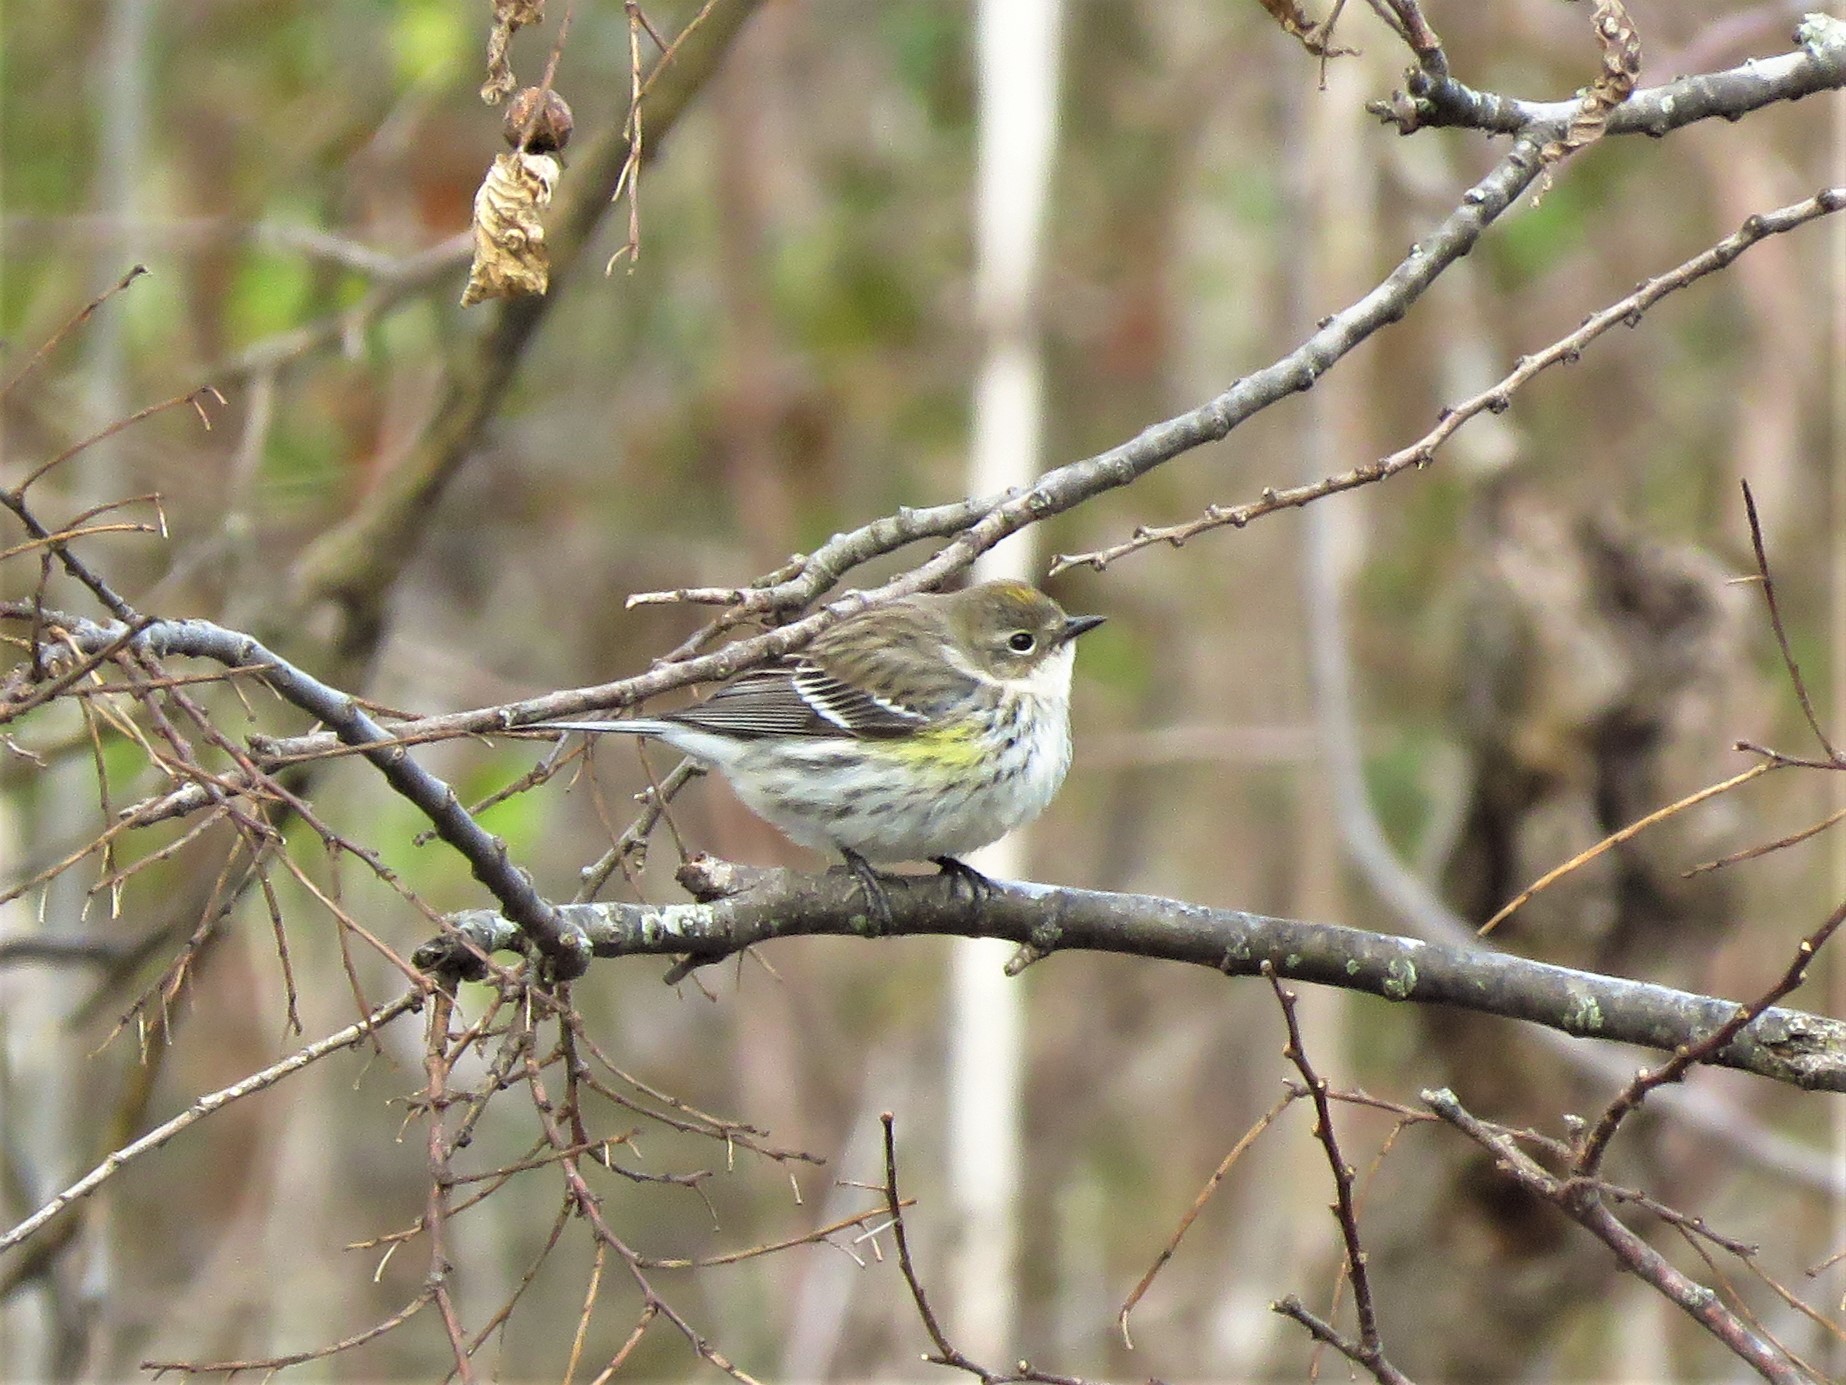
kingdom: Animalia
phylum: Chordata
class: Aves
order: Passeriformes
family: Parulidae
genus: Setophaga
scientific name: Setophaga coronata
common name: Myrtle warbler
